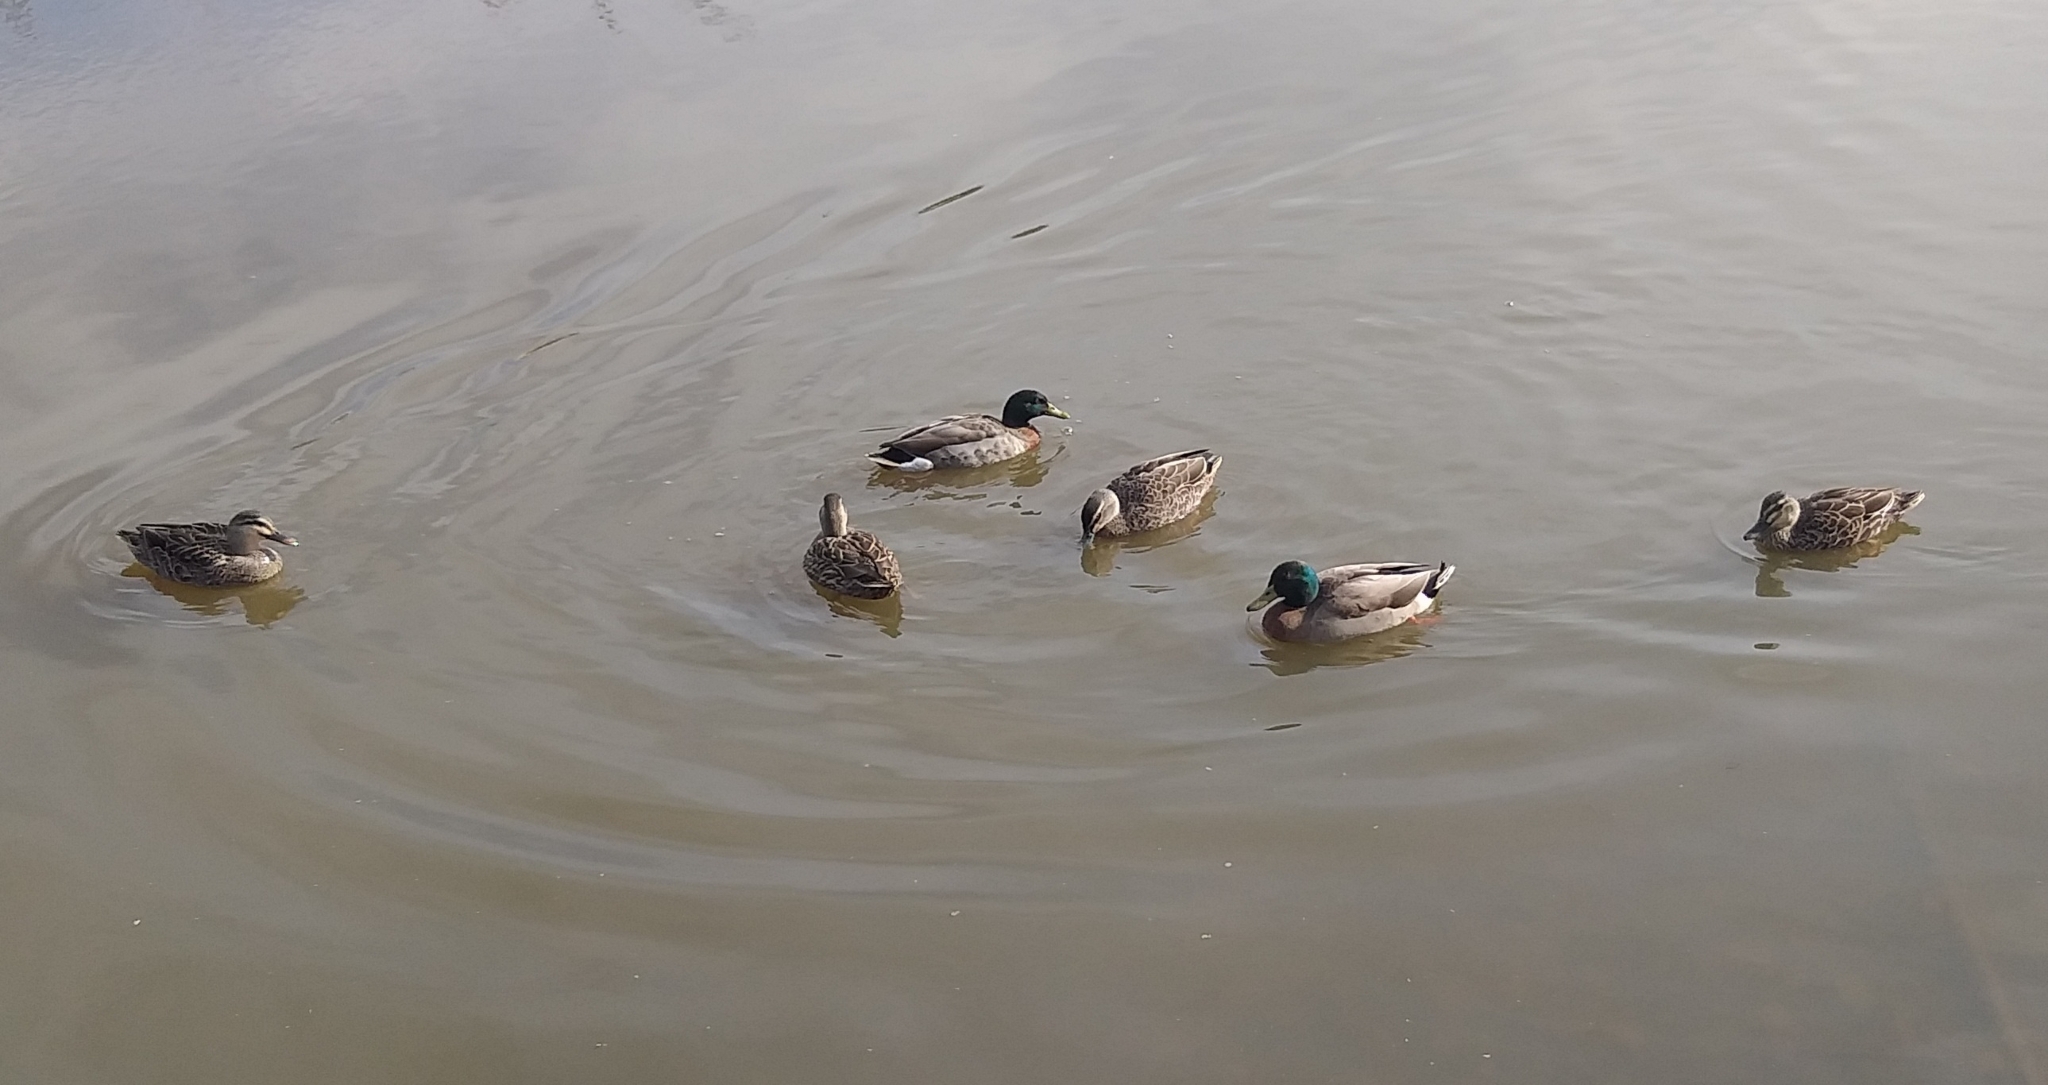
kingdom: Animalia
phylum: Chordata
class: Aves
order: Anseriformes
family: Anatidae
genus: Anas
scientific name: Anas platyrhynchos
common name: Mallard
